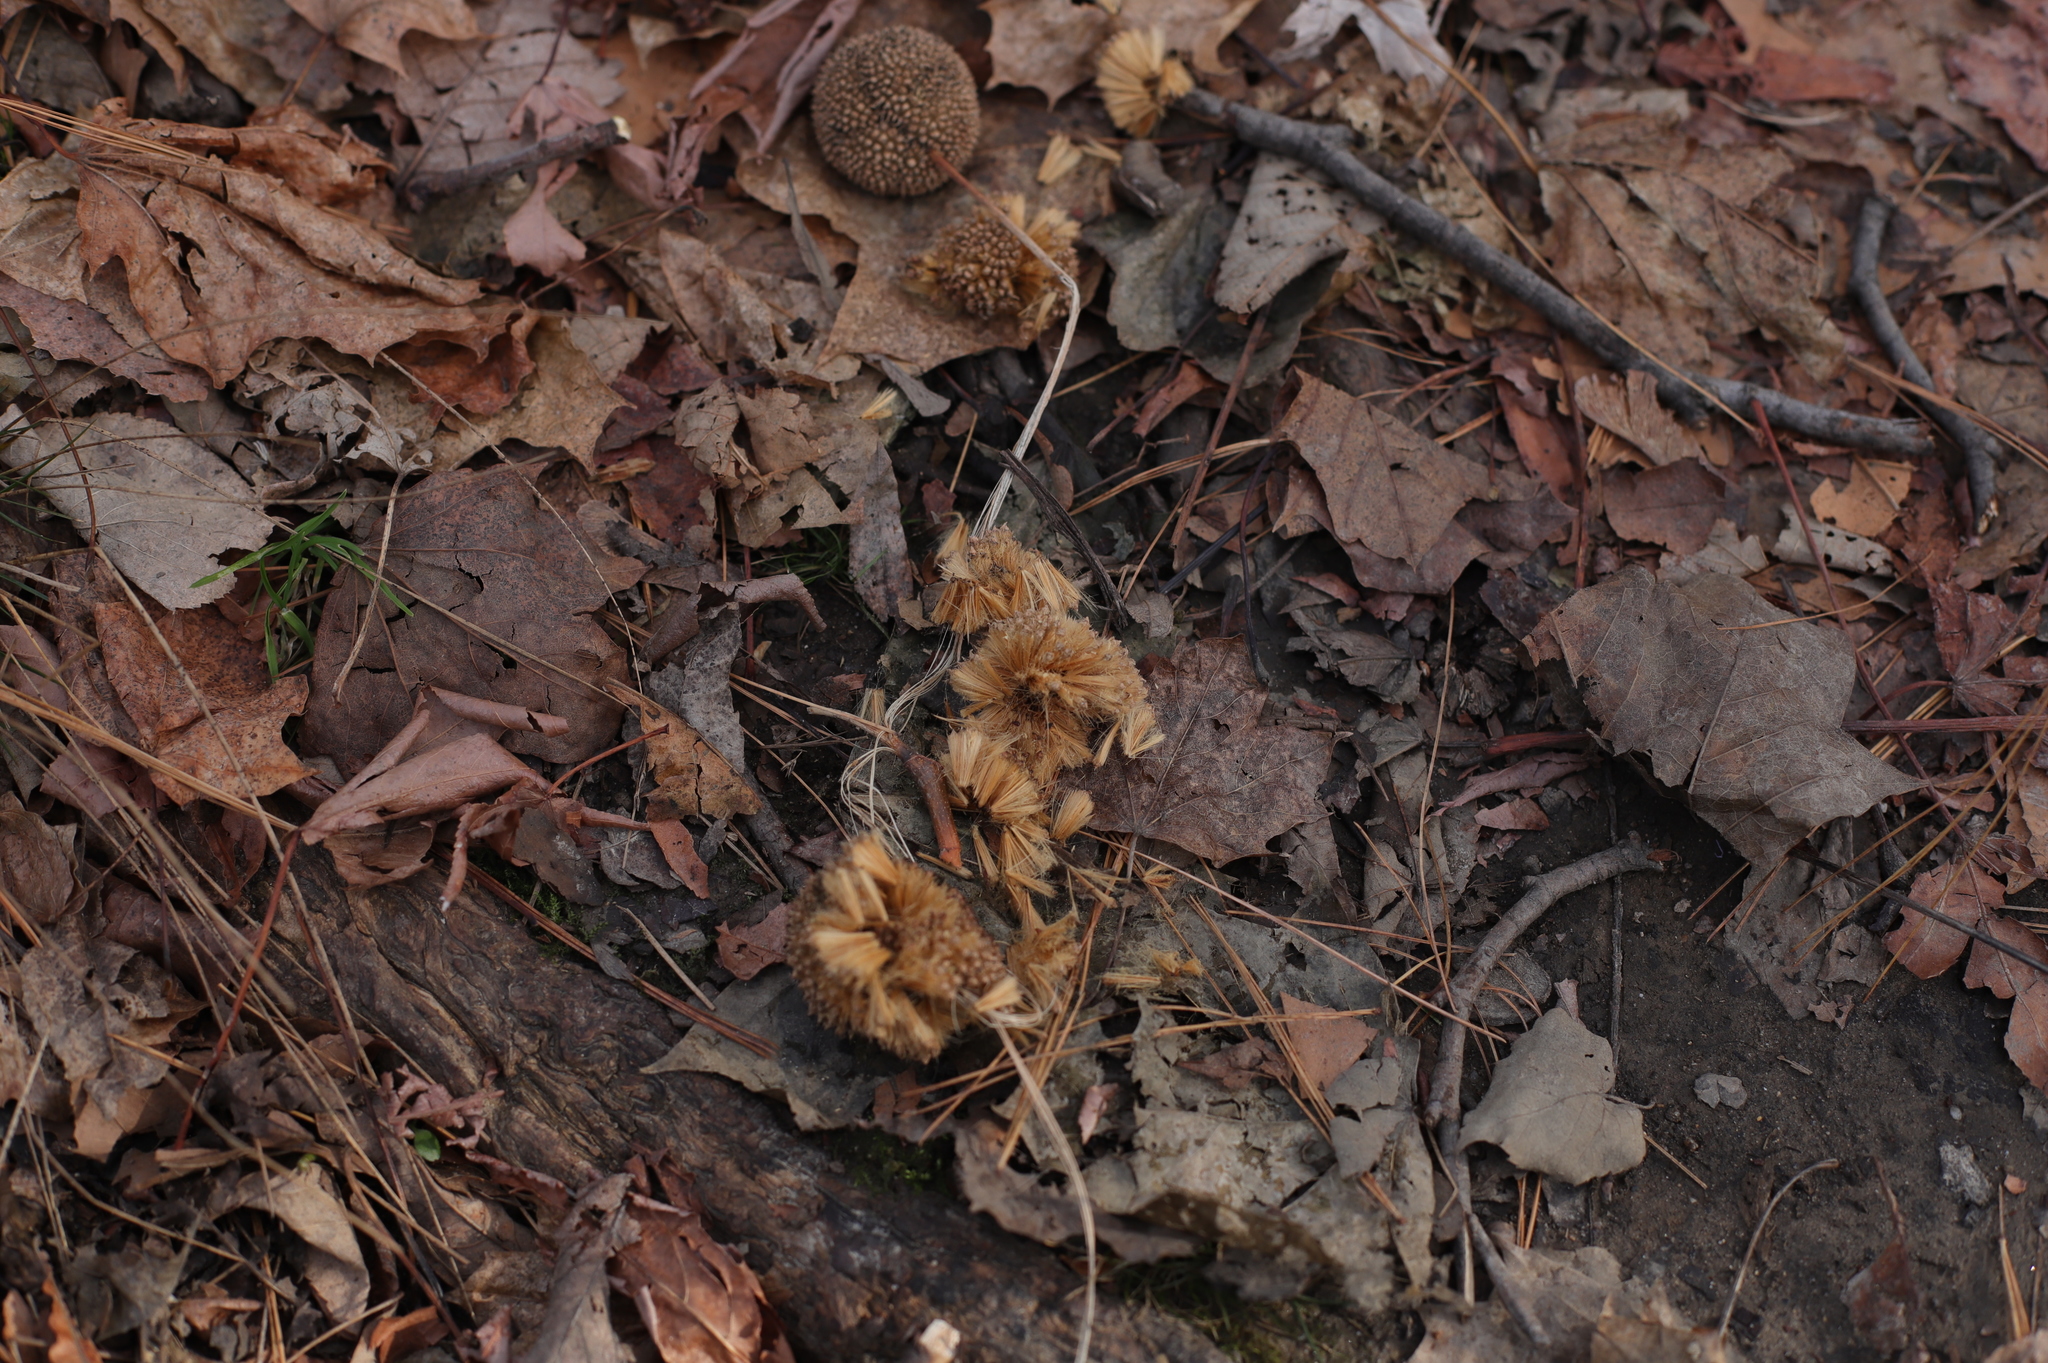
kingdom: Plantae
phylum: Tracheophyta
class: Magnoliopsida
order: Proteales
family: Platanaceae
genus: Platanus
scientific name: Platanus occidentalis
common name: American sycamore
